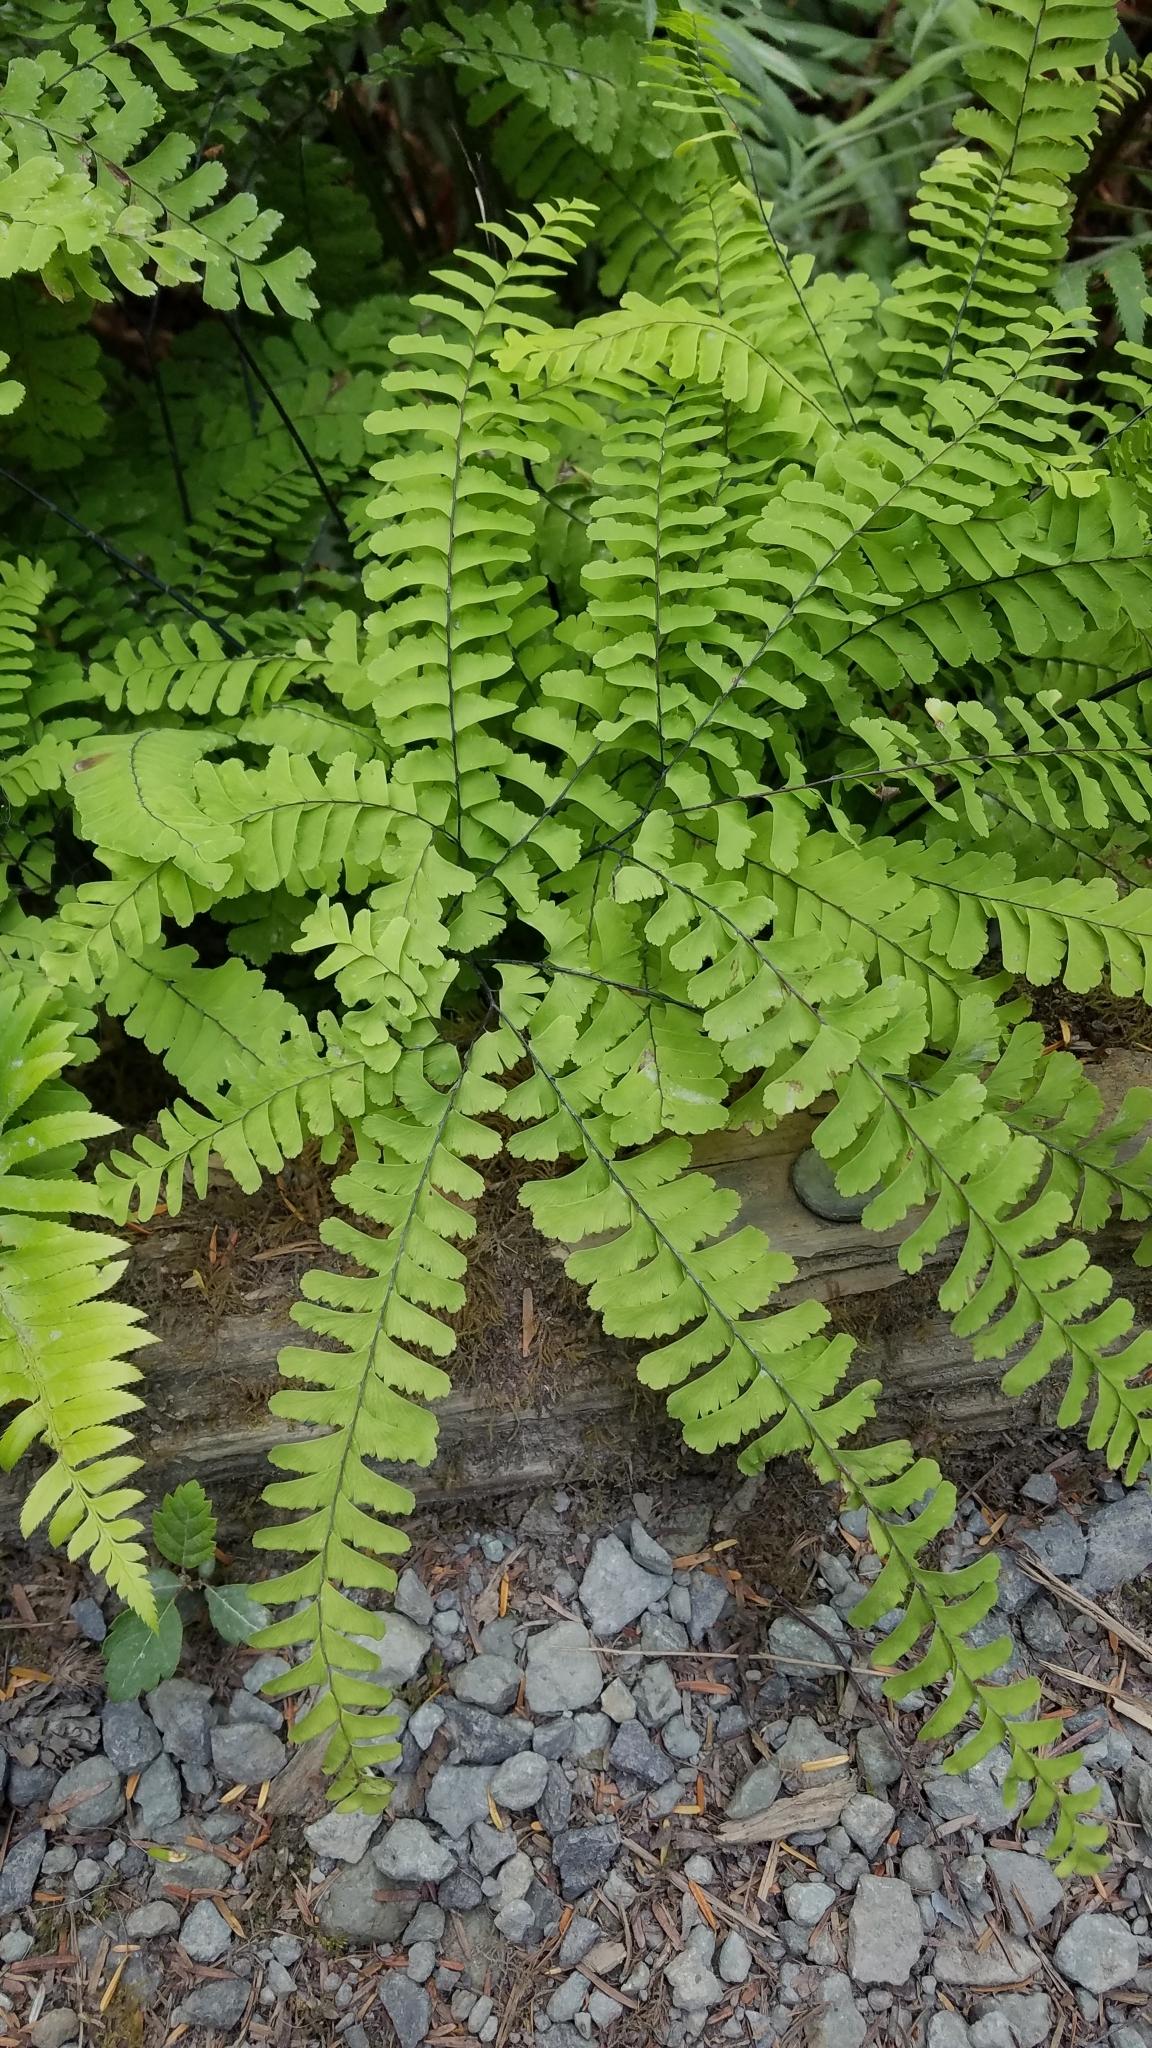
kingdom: Plantae
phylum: Tracheophyta
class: Polypodiopsida
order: Polypodiales
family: Pteridaceae
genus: Adiantum
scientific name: Adiantum aleuticum
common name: Aleutian maidenhair fern
